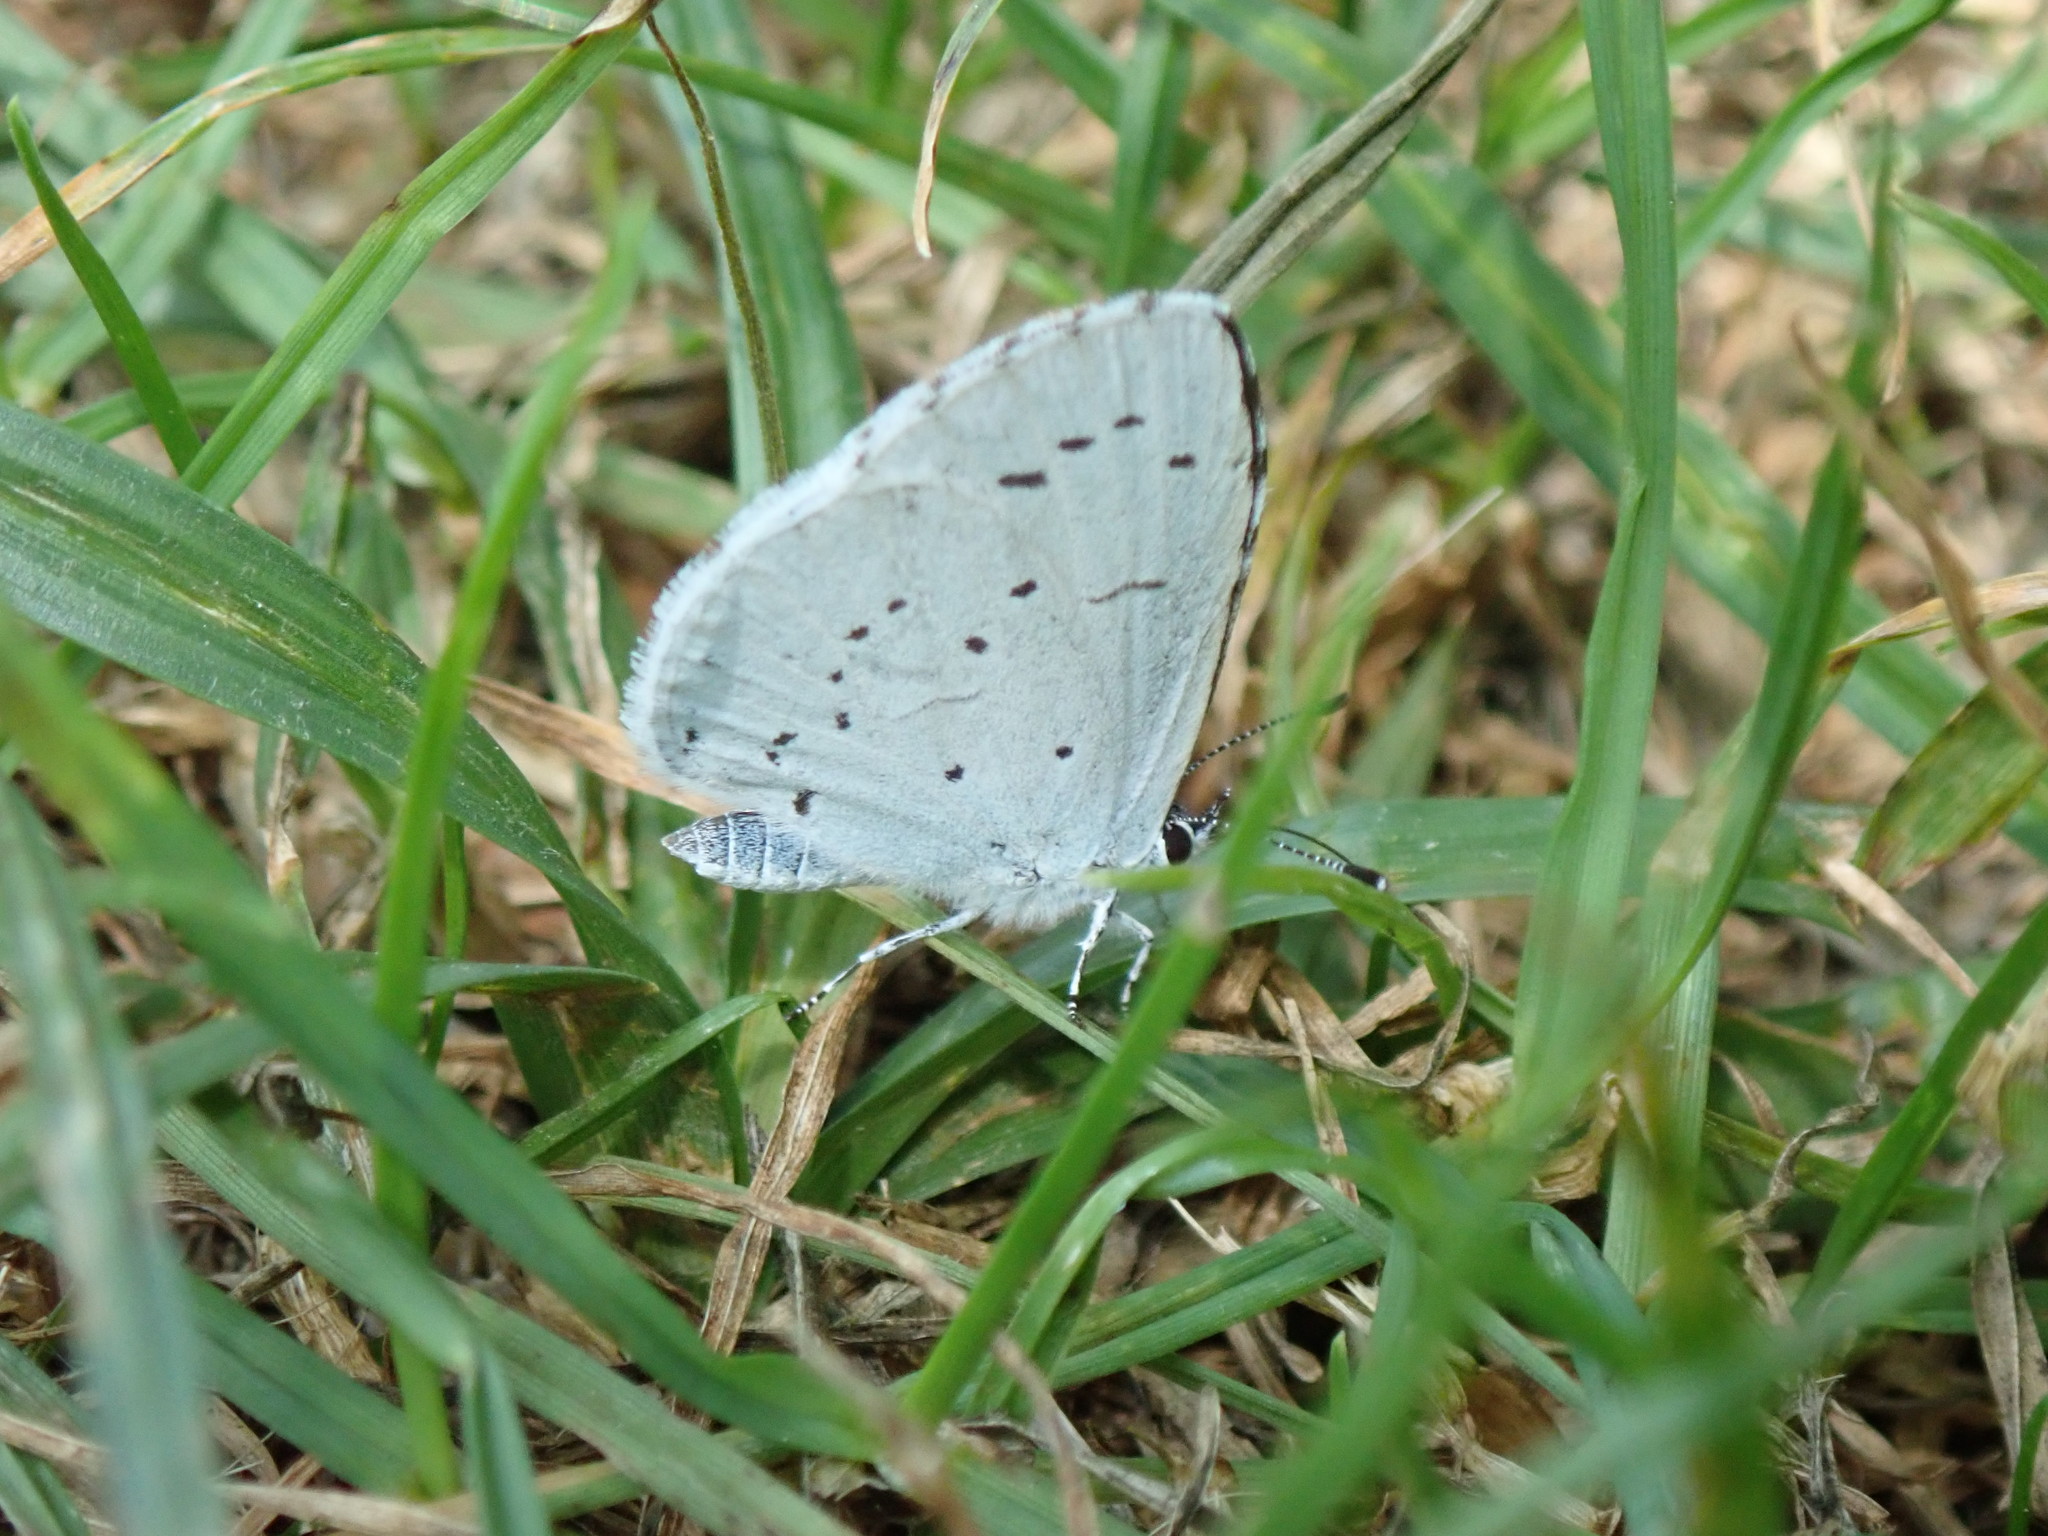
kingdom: Animalia
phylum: Arthropoda
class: Insecta
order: Lepidoptera
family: Lycaenidae
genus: Celastrina
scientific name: Celastrina argiolus
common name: Holly blue
